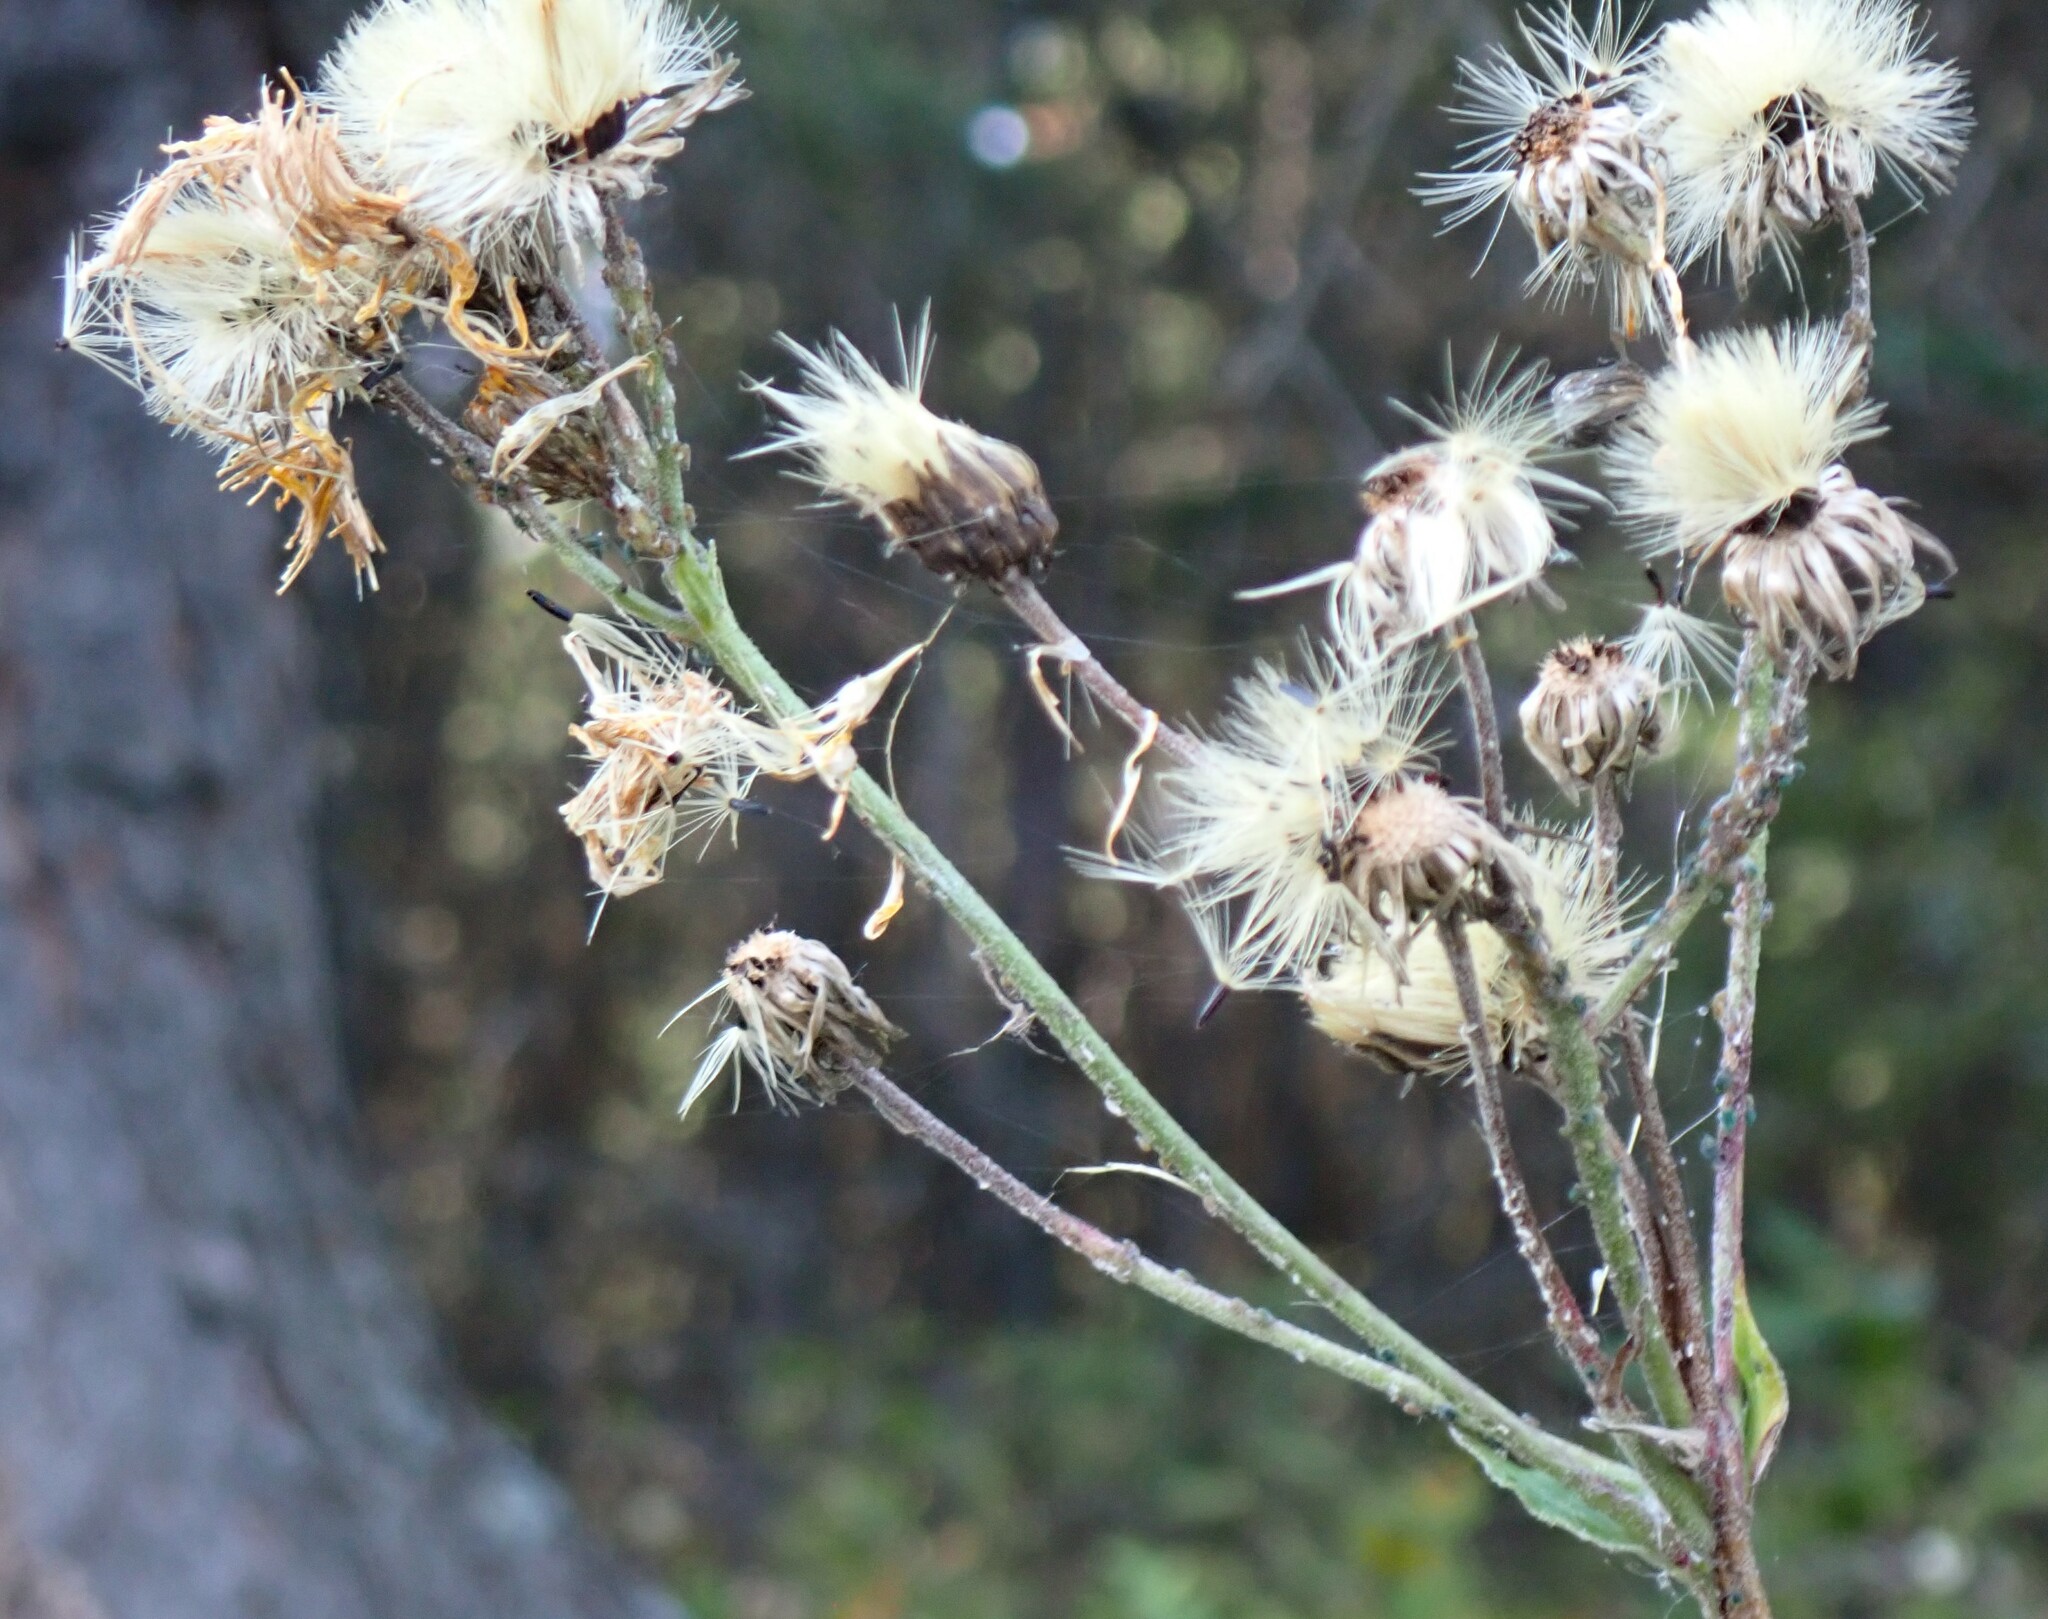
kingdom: Plantae
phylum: Tracheophyta
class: Magnoliopsida
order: Asterales
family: Asteraceae
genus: Hieracium
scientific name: Hieracium umbellatum
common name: Northern hawkweed
